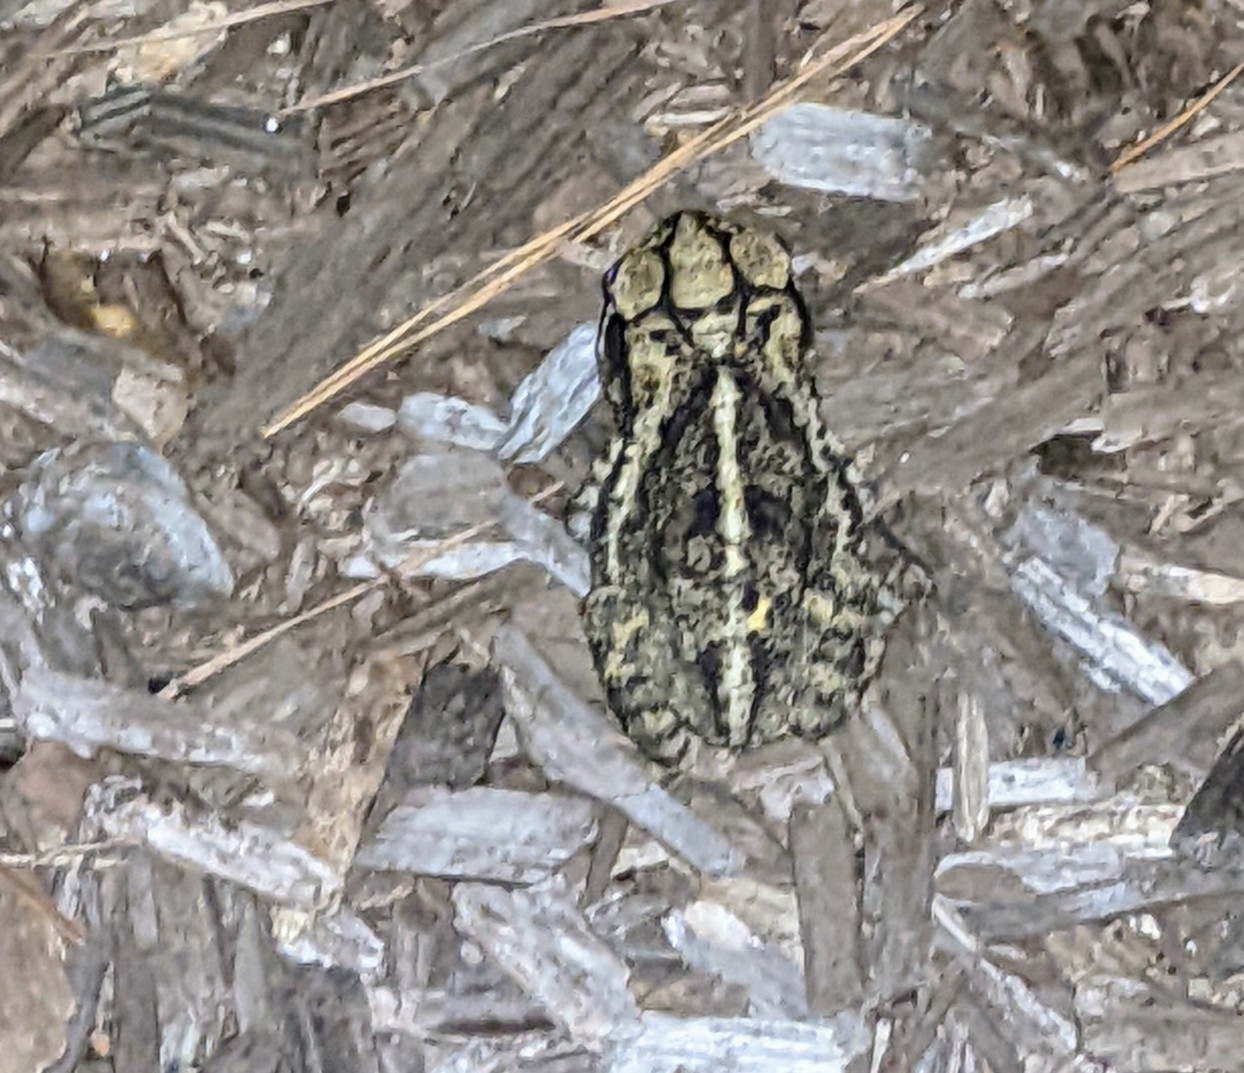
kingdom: Animalia
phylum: Chordata
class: Amphibia
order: Anura
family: Bufonidae
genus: Incilius
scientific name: Incilius nebulifer
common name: Gulf coast toad
